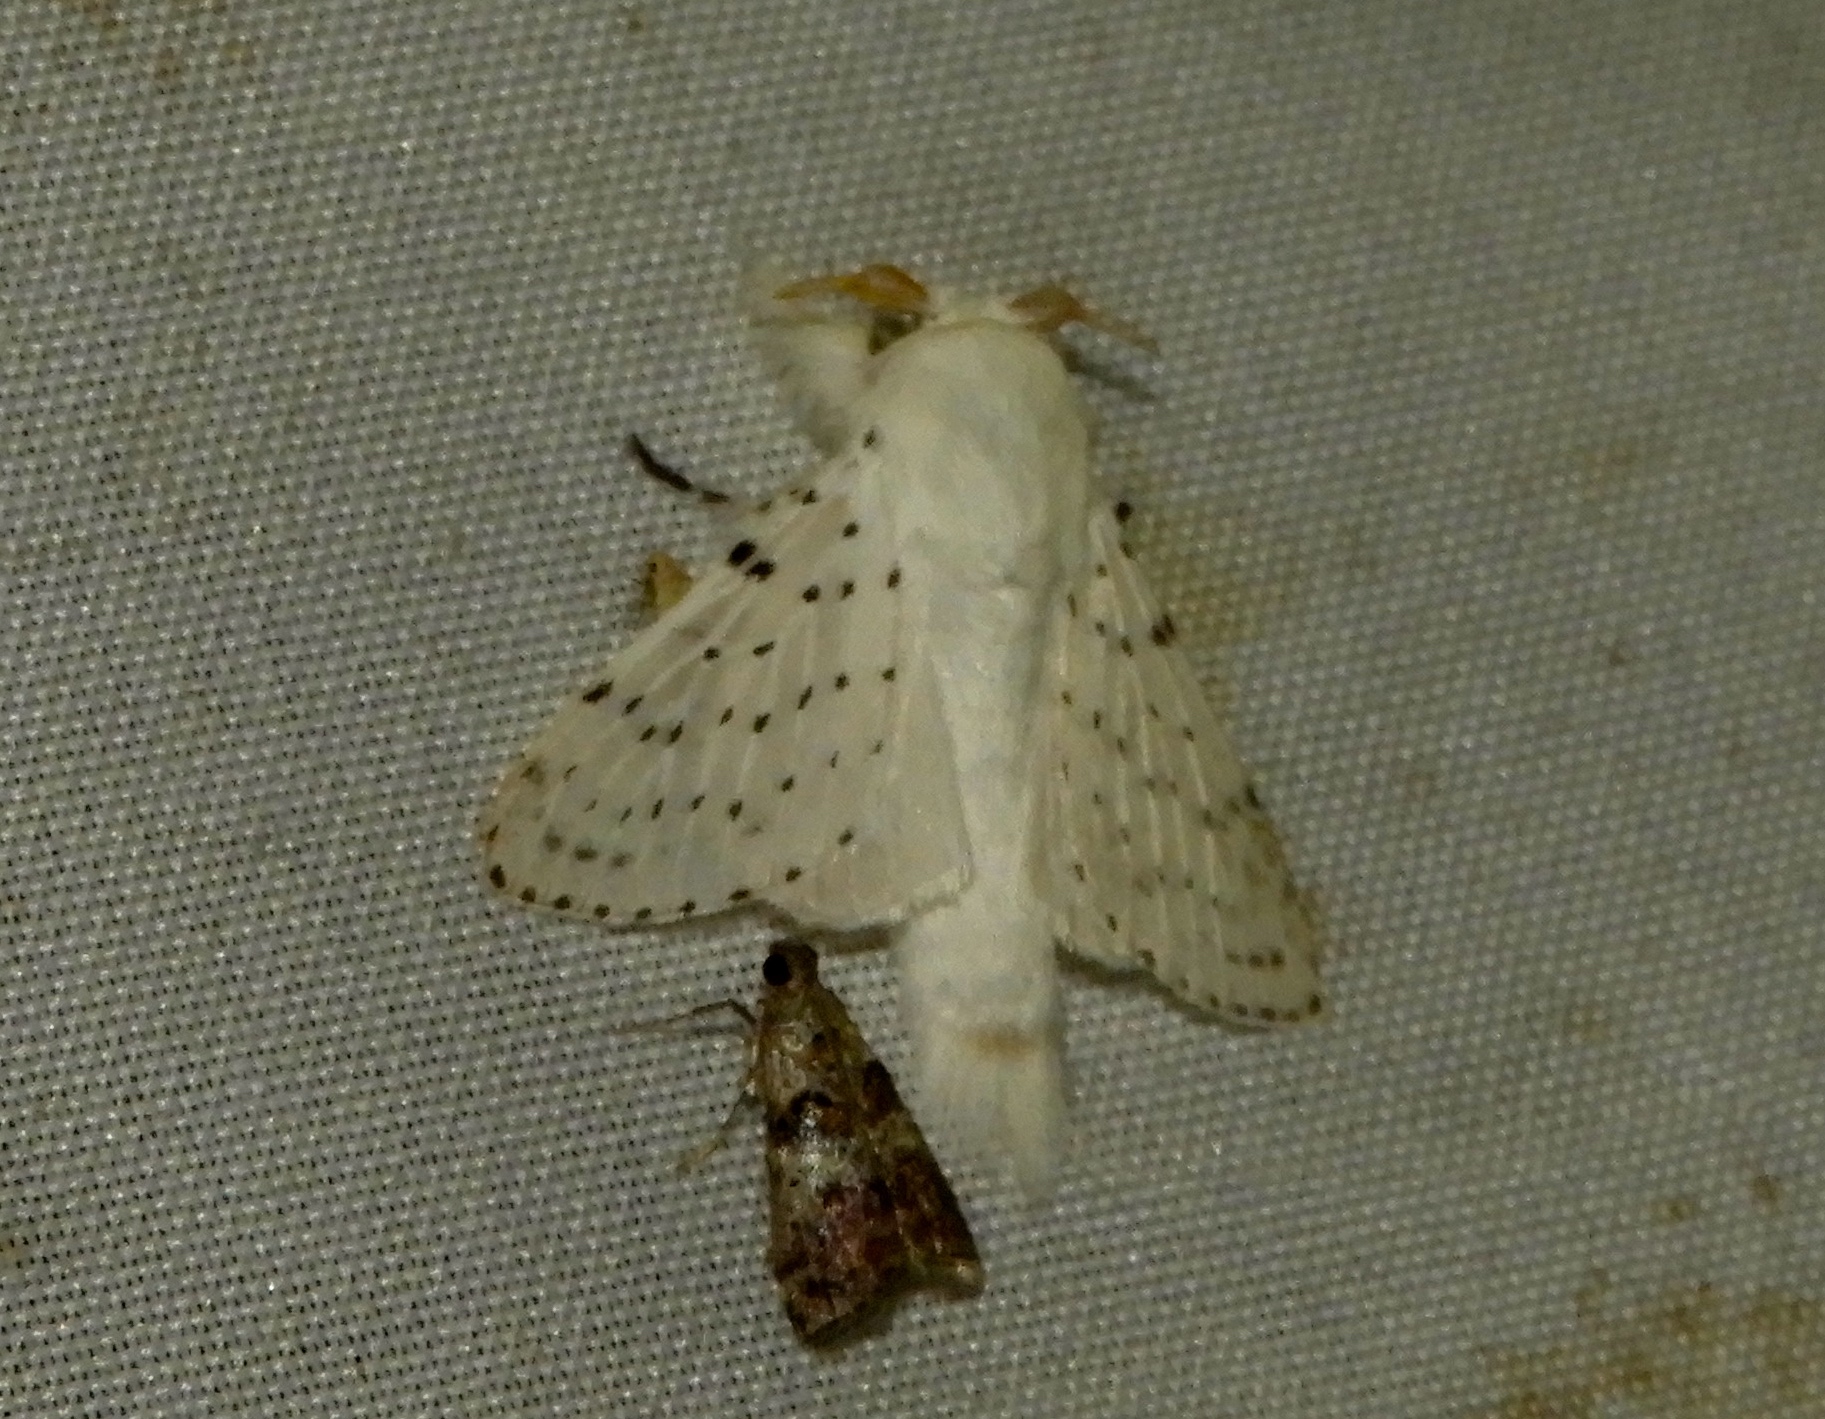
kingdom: Animalia
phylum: Arthropoda
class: Insecta
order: Lepidoptera
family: Lasiocampidae
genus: Artace
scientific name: Artace
